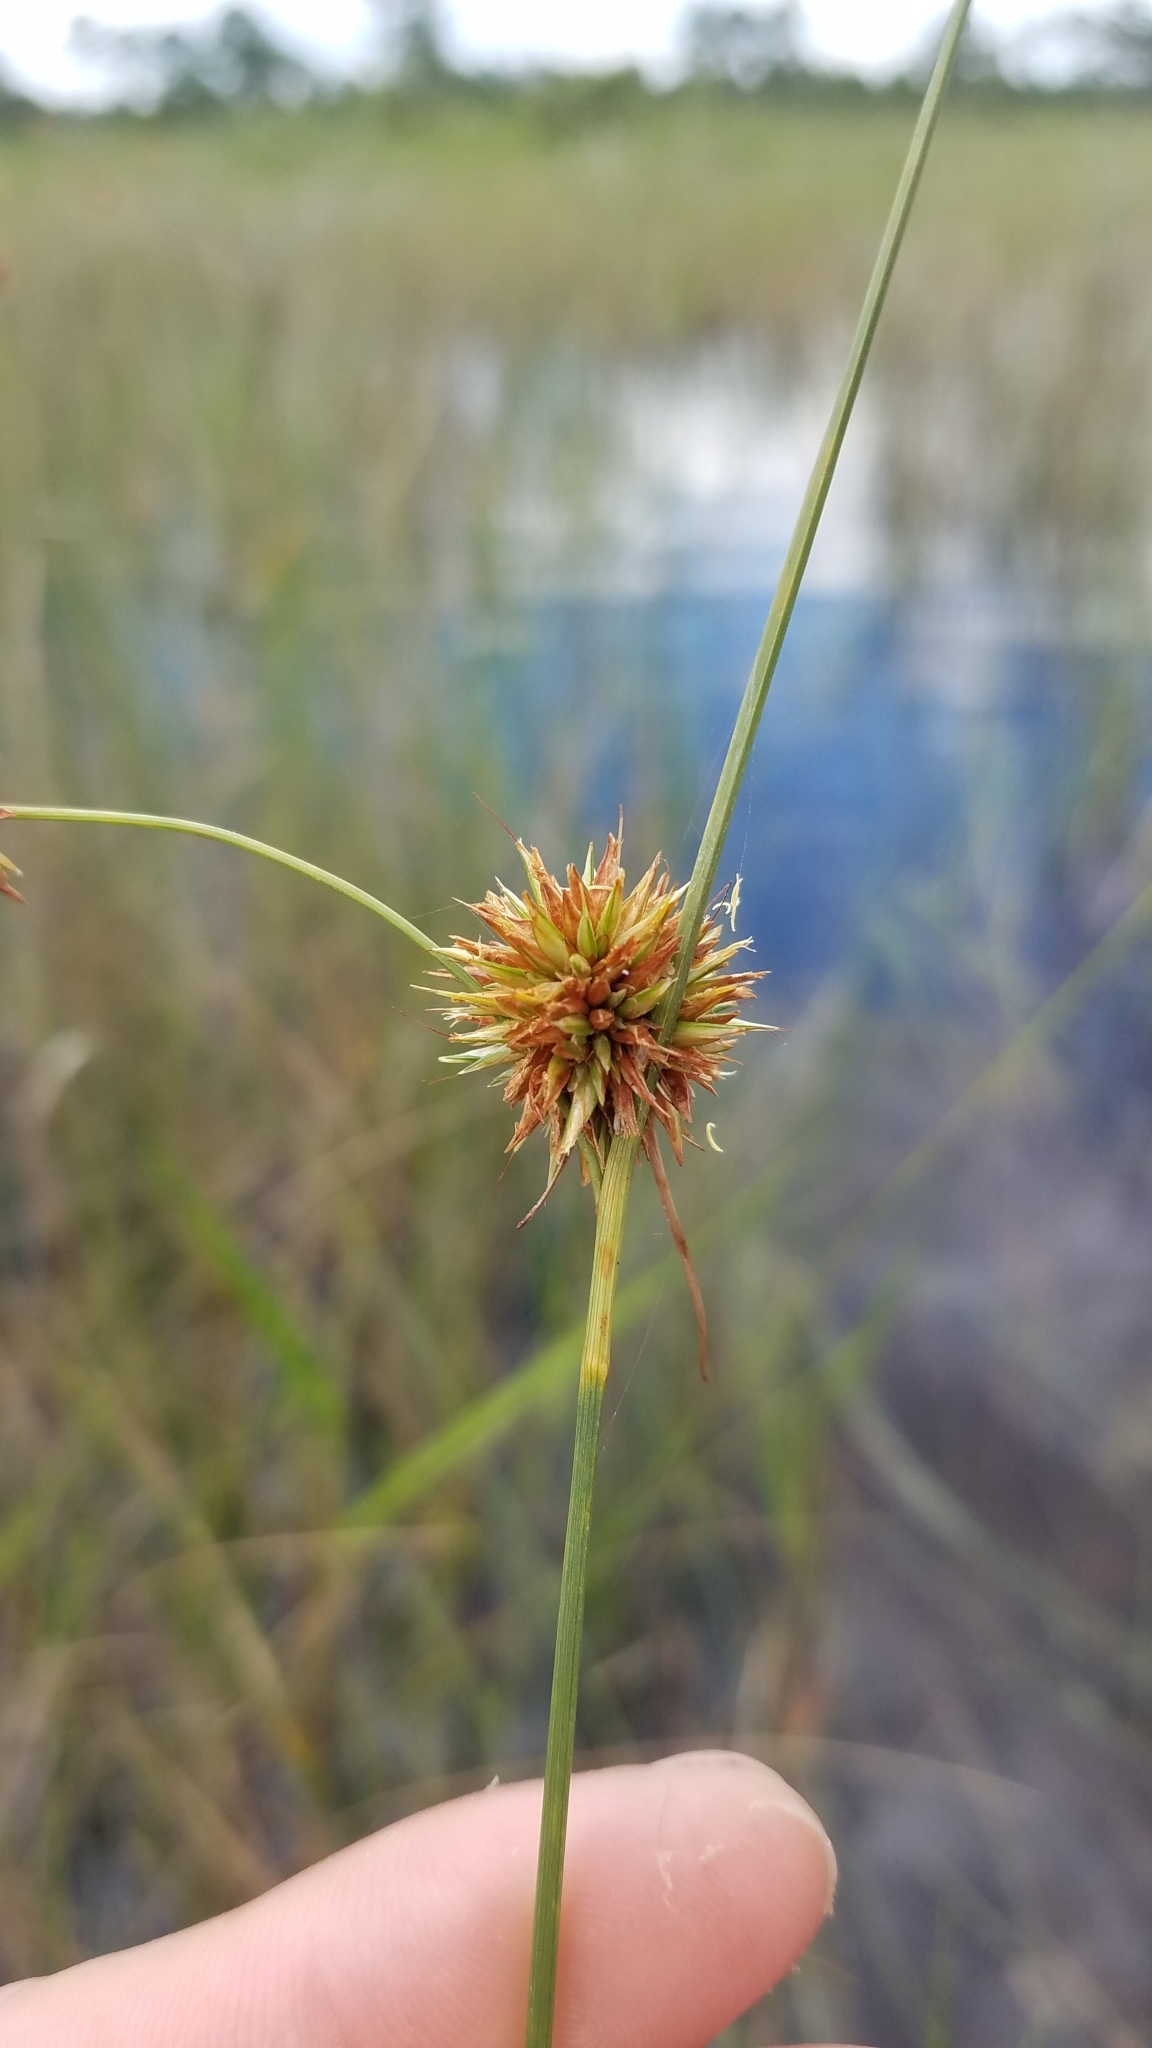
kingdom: Plantae
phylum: Tracheophyta
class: Liliopsida
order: Poales
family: Cyperaceae
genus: Rhynchospora
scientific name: Rhynchospora tracyi
